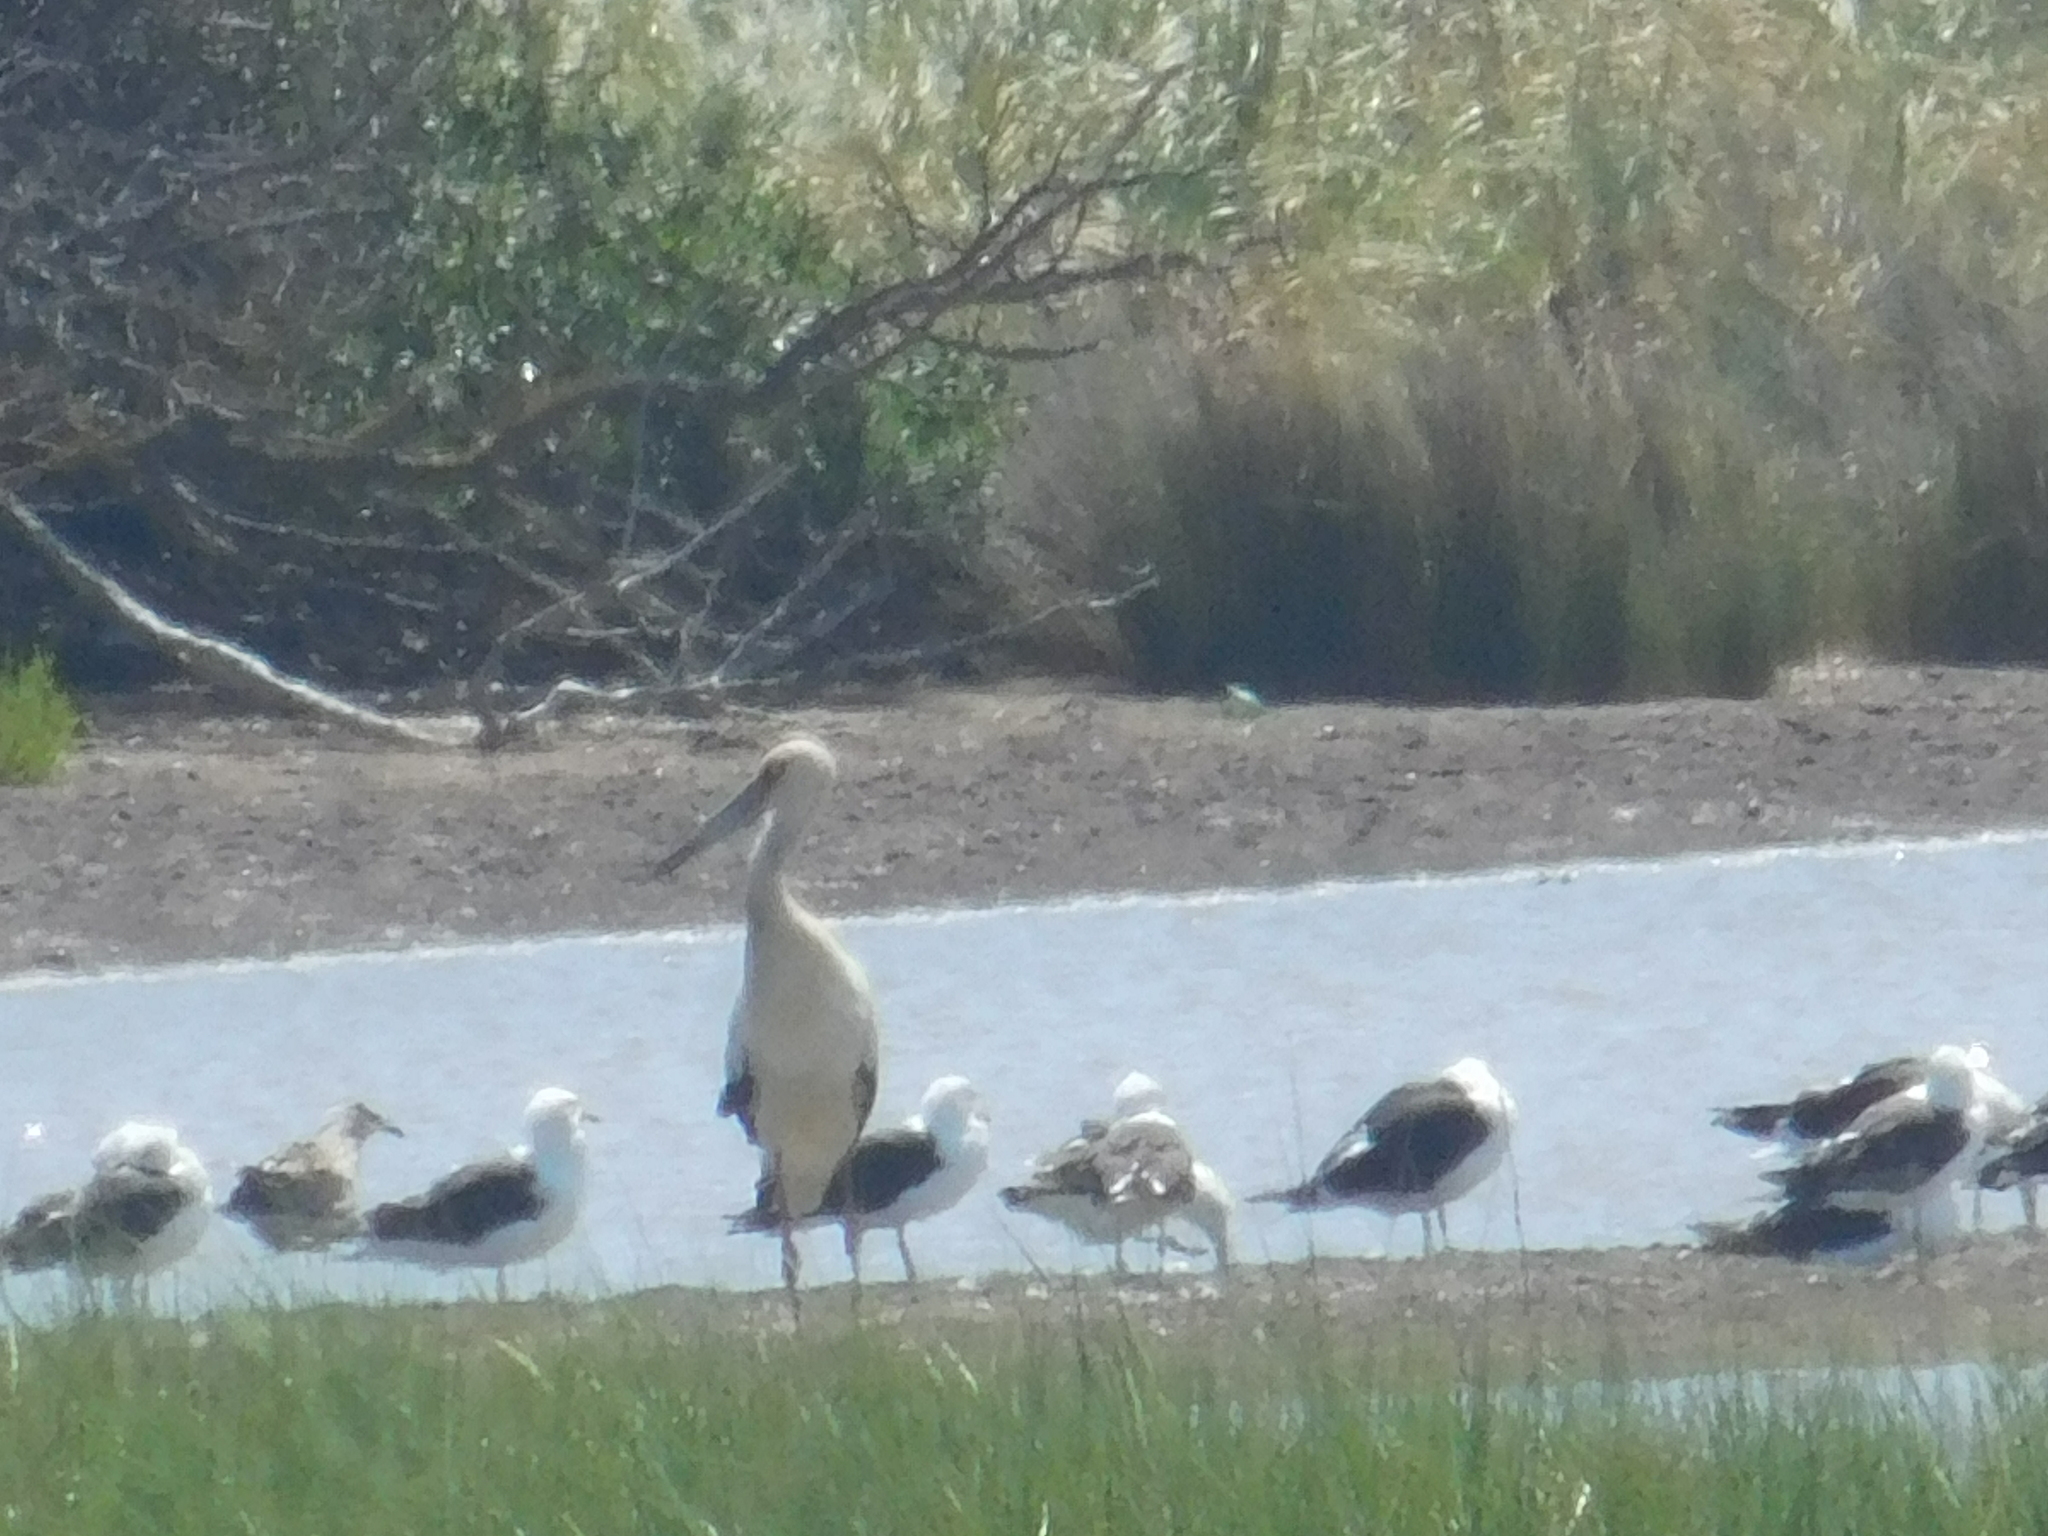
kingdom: Animalia
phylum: Chordata
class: Aves
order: Ciconiiformes
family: Ciconiidae
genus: Ciconia
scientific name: Ciconia maguari
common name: Maguari stork
